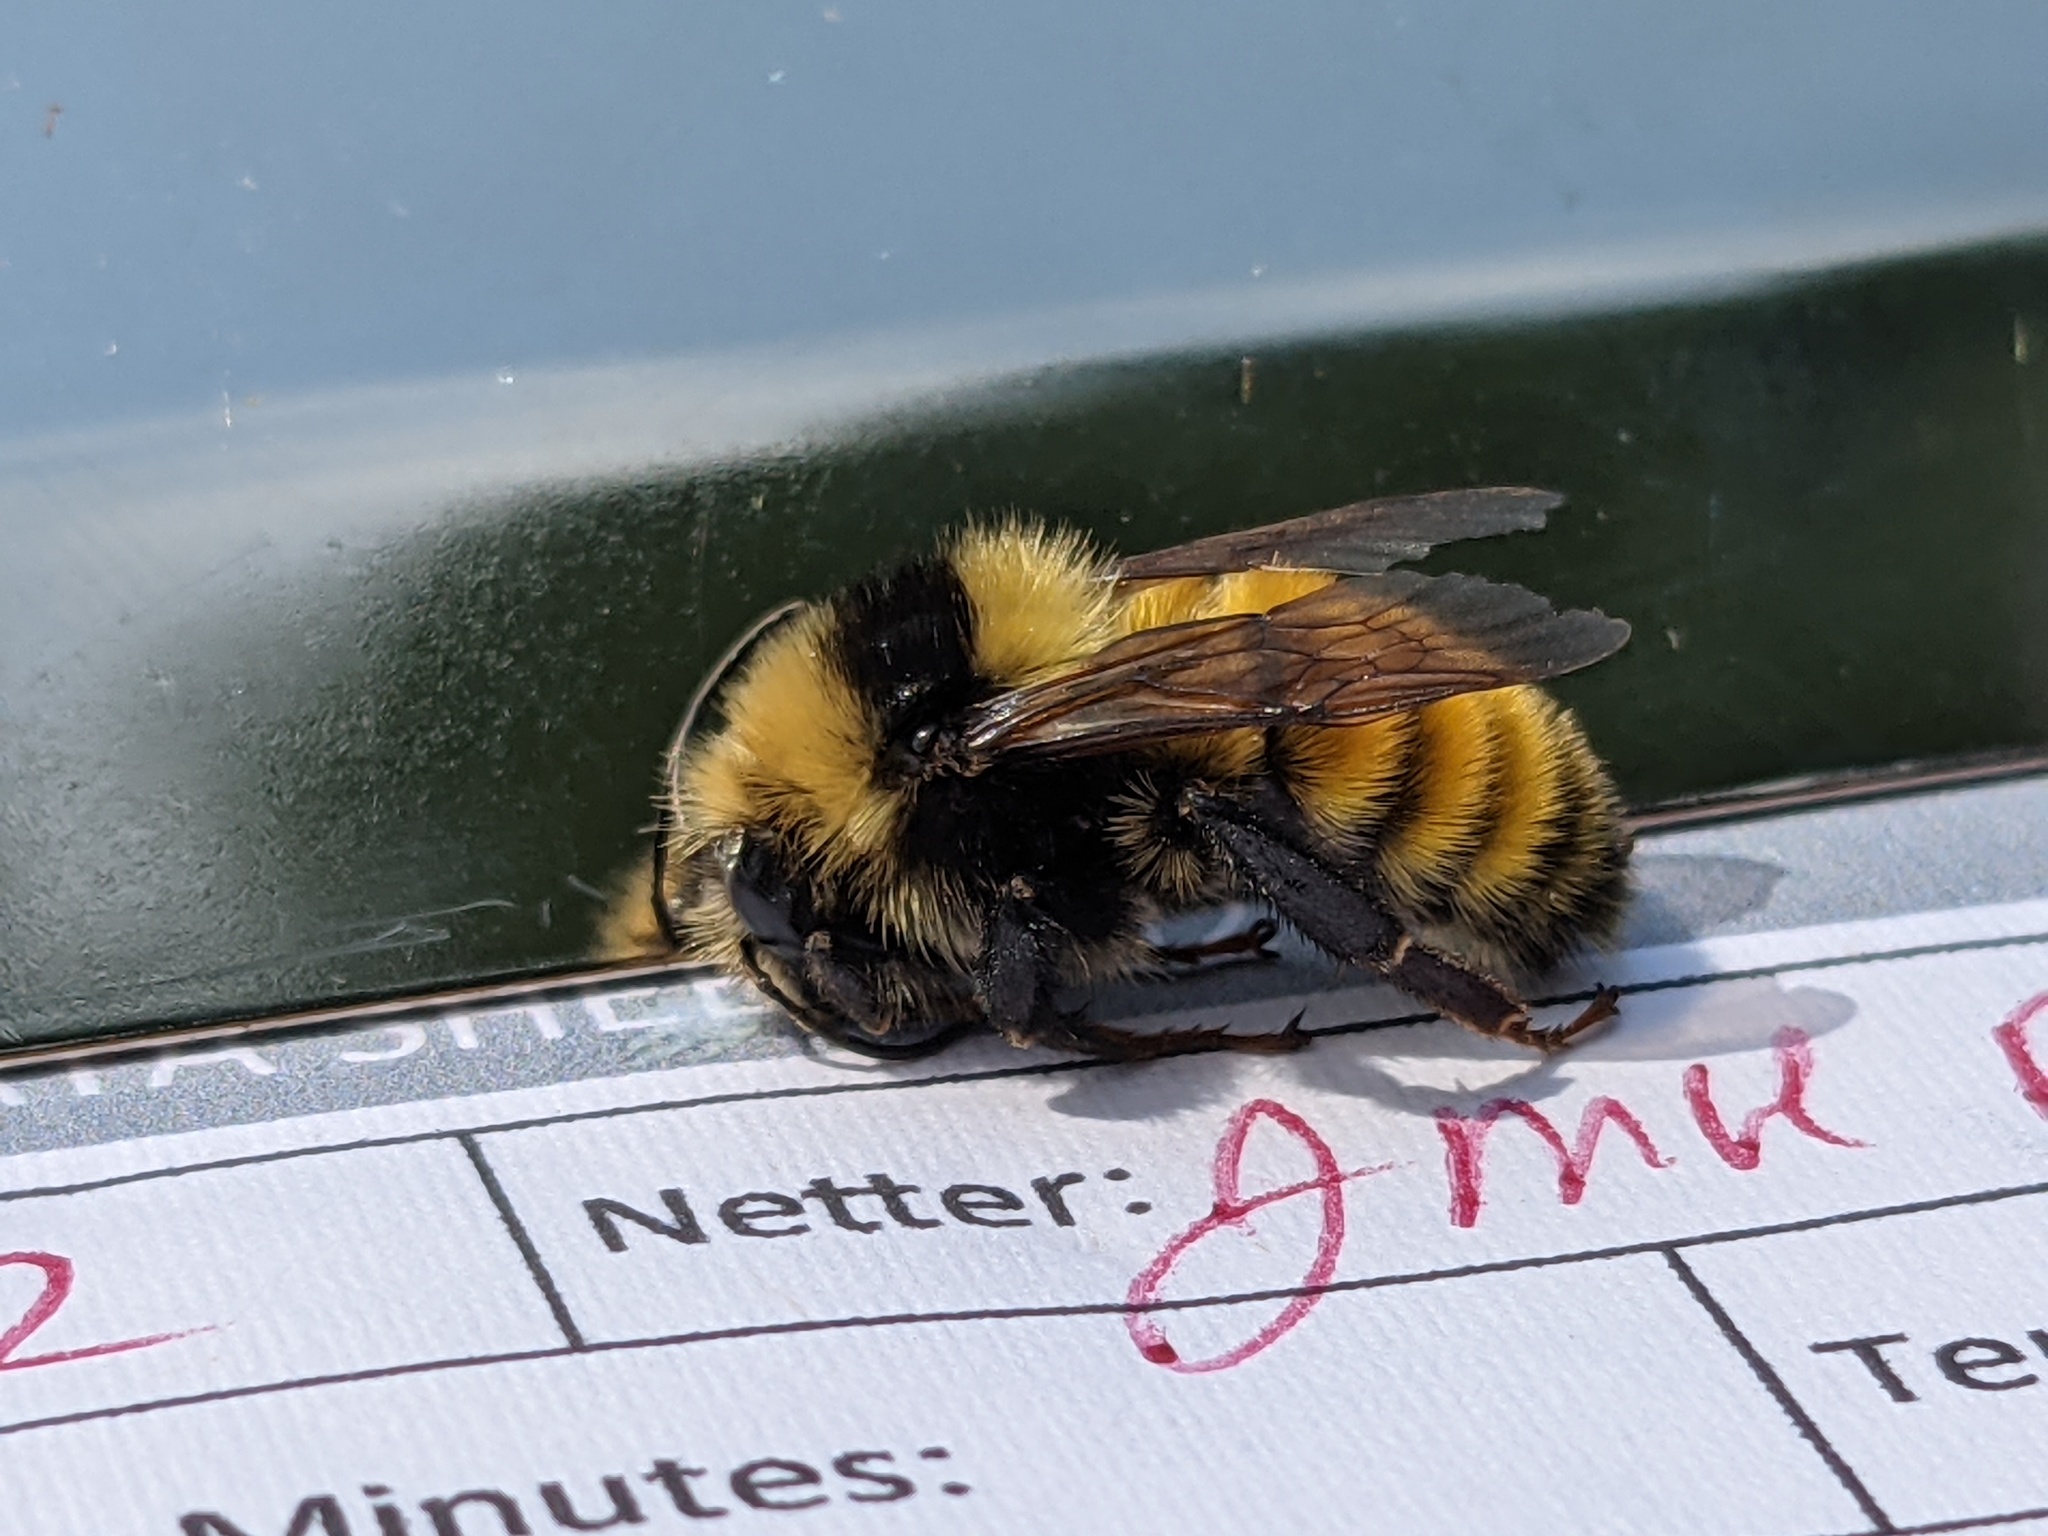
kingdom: Animalia
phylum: Arthropoda
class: Insecta
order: Hymenoptera
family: Apidae
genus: Bombus
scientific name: Bombus borealis
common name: Northern amber bumble bee
